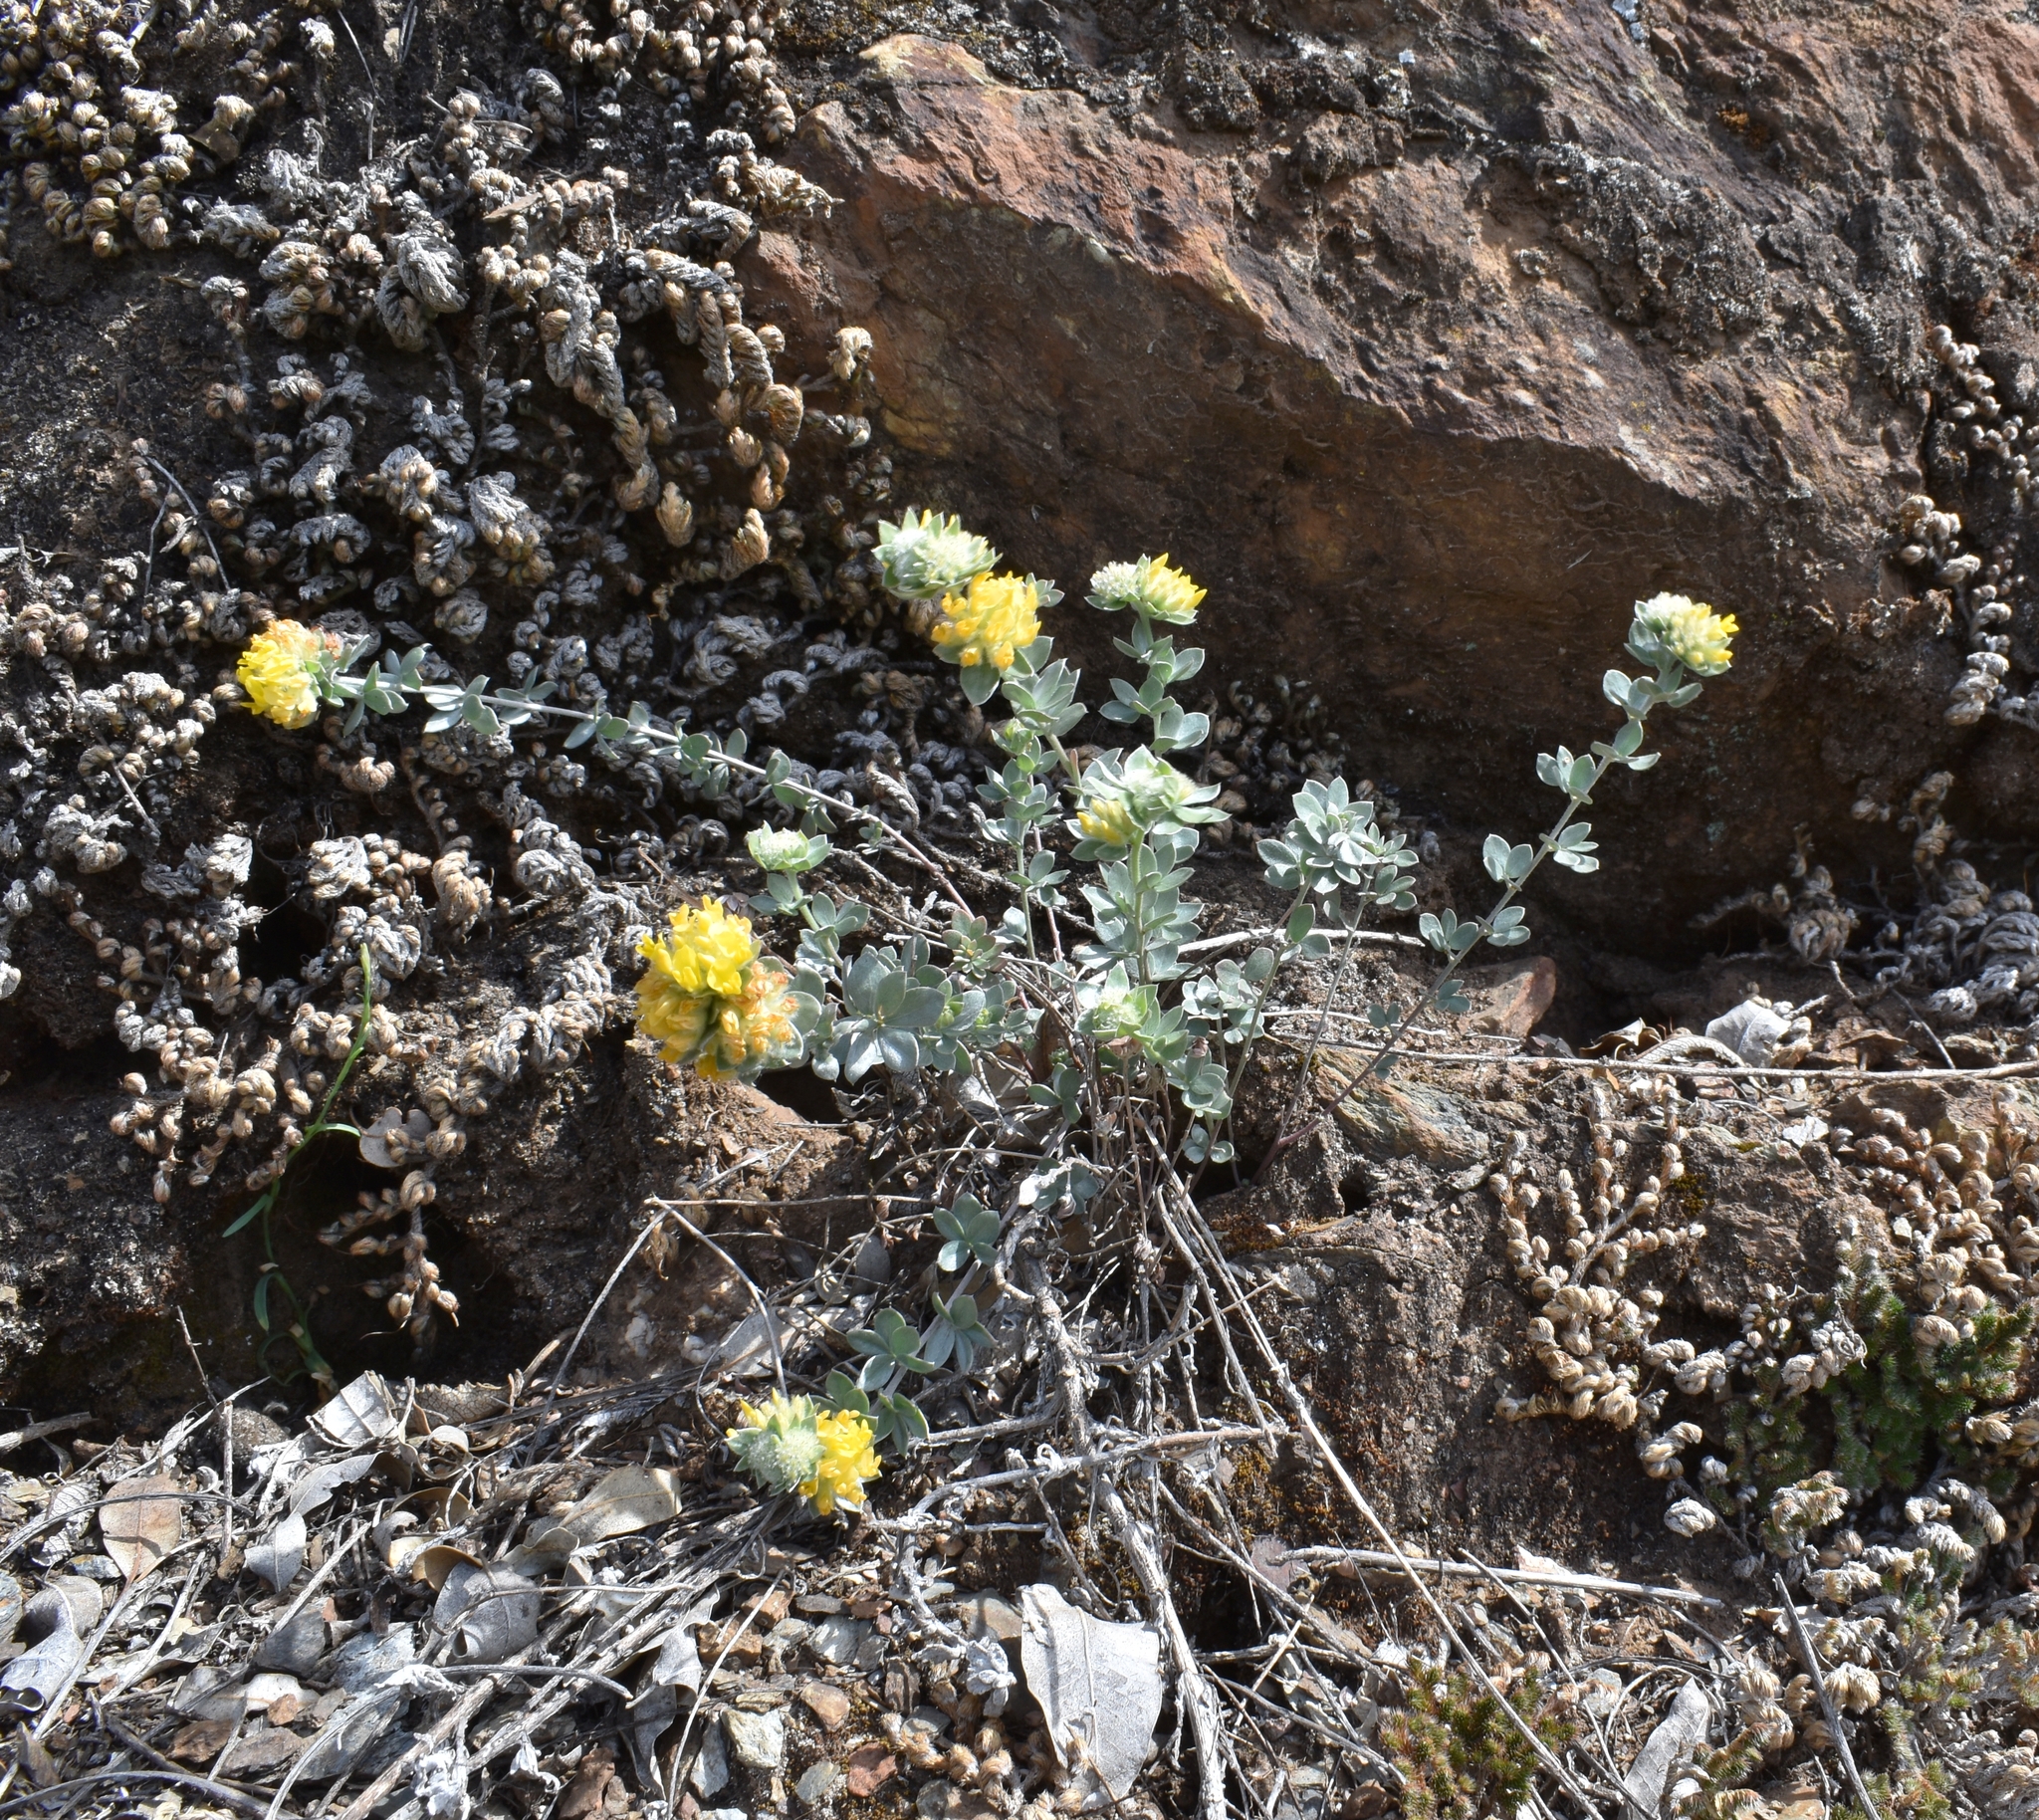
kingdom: Plantae
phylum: Tracheophyta
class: Magnoliopsida
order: Fabales
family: Fabaceae
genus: Acmispon
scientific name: Acmispon argophyllus
